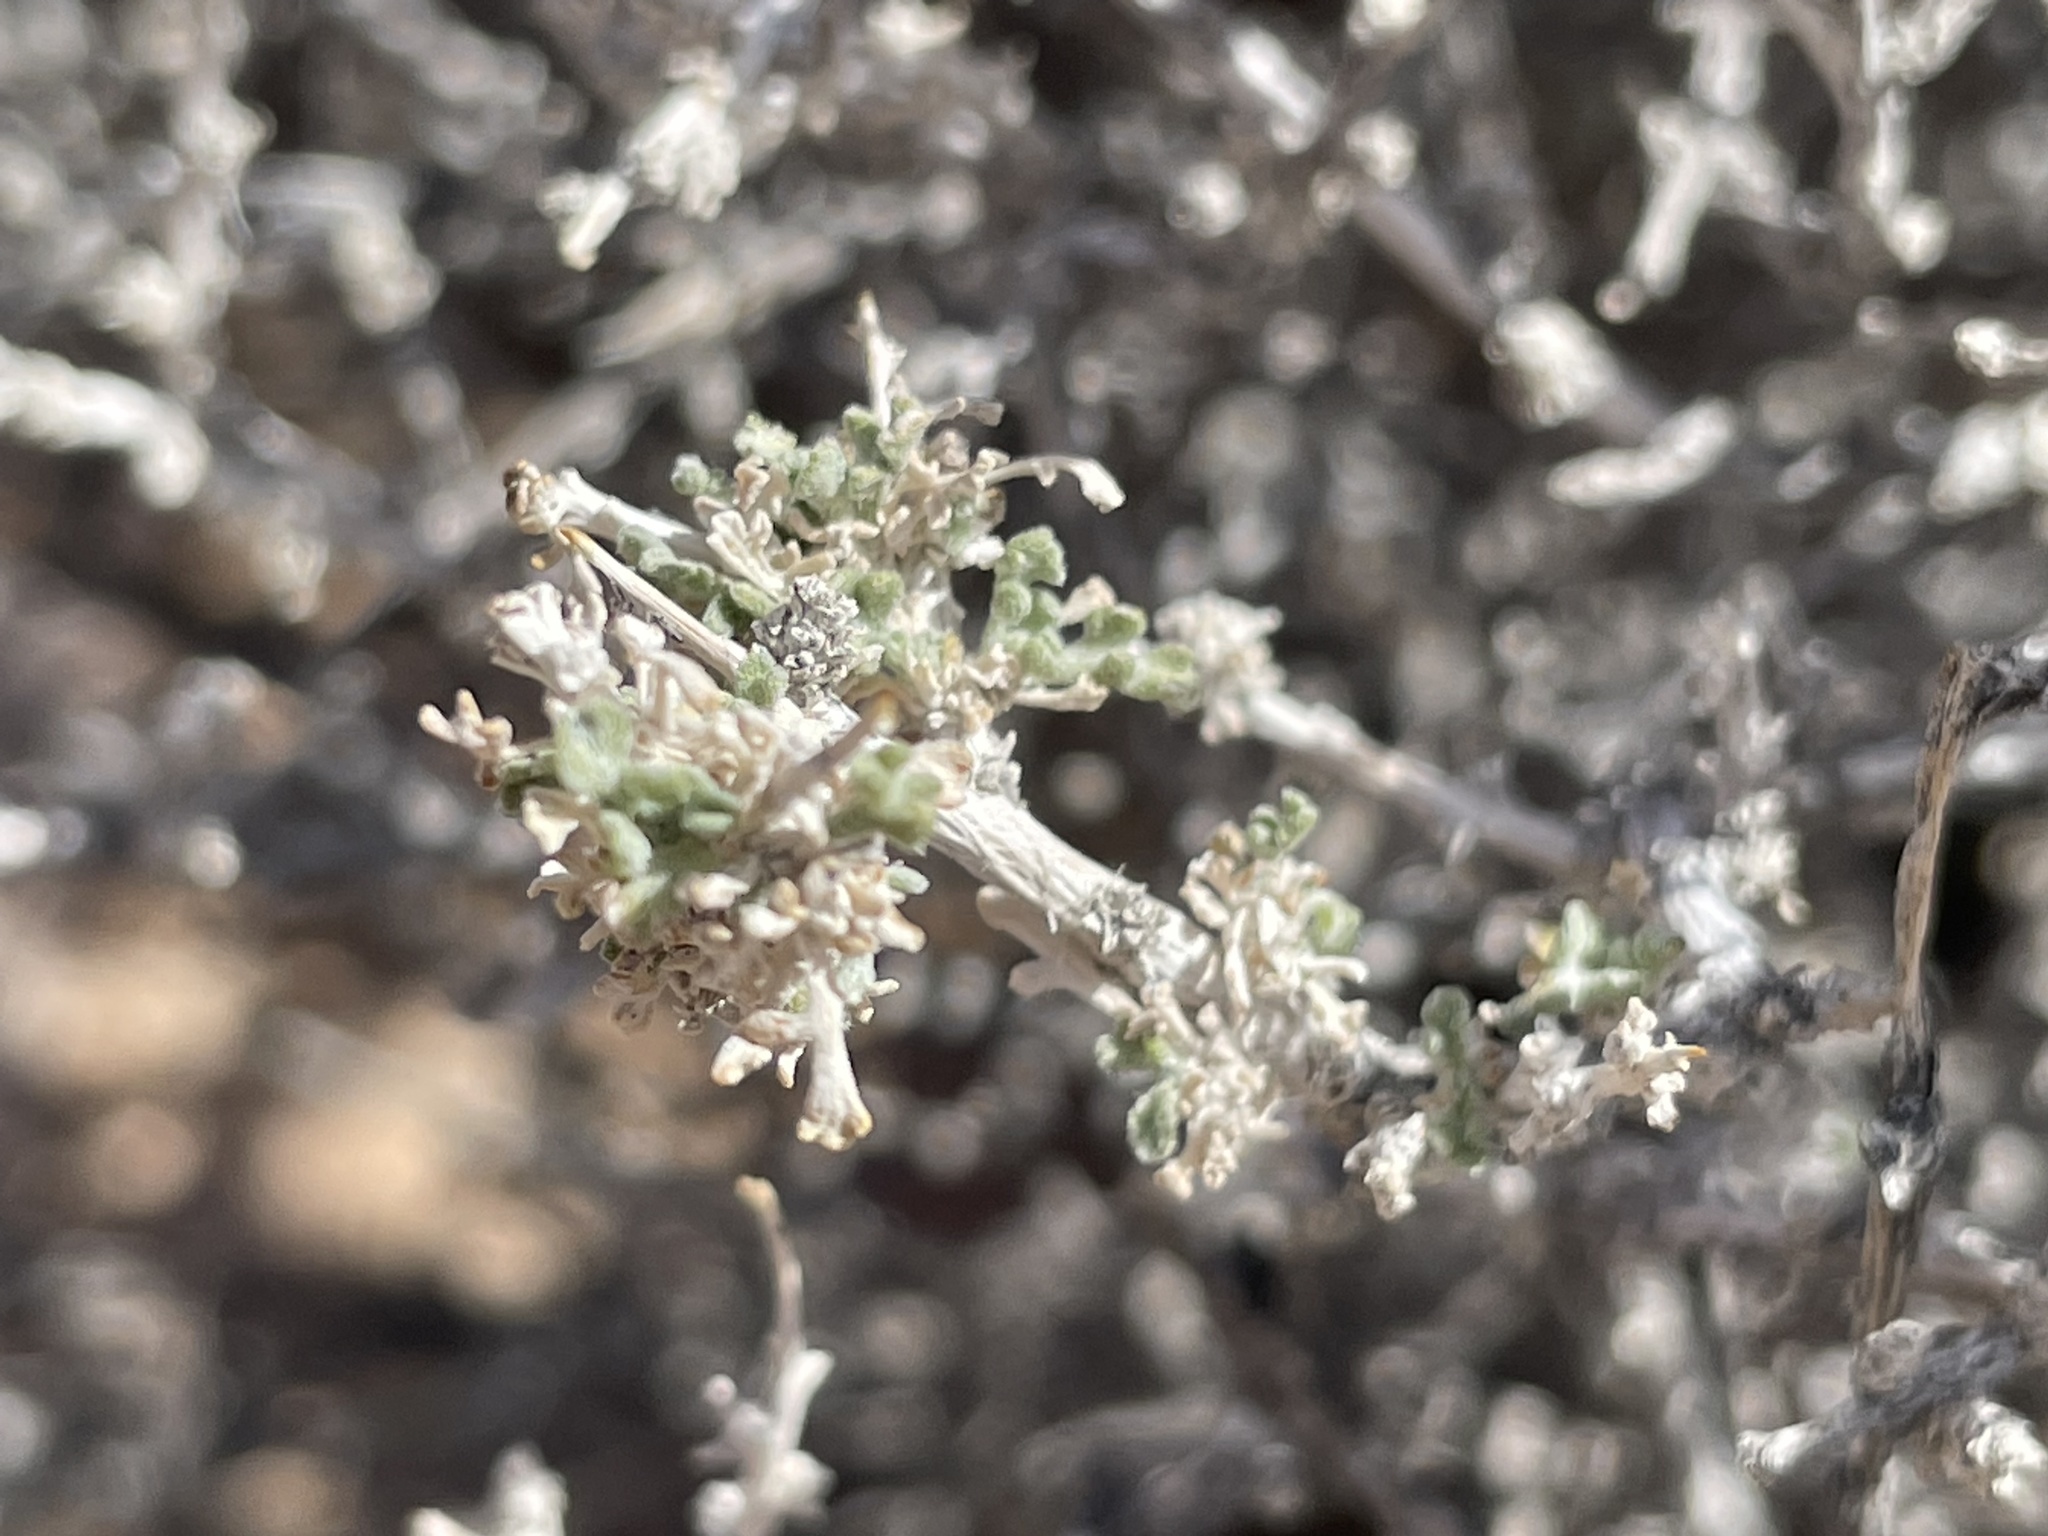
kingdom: Plantae
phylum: Tracheophyta
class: Magnoliopsida
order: Asterales
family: Asteraceae
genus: Ambrosia
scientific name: Ambrosia dumosa
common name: Bur-sage
